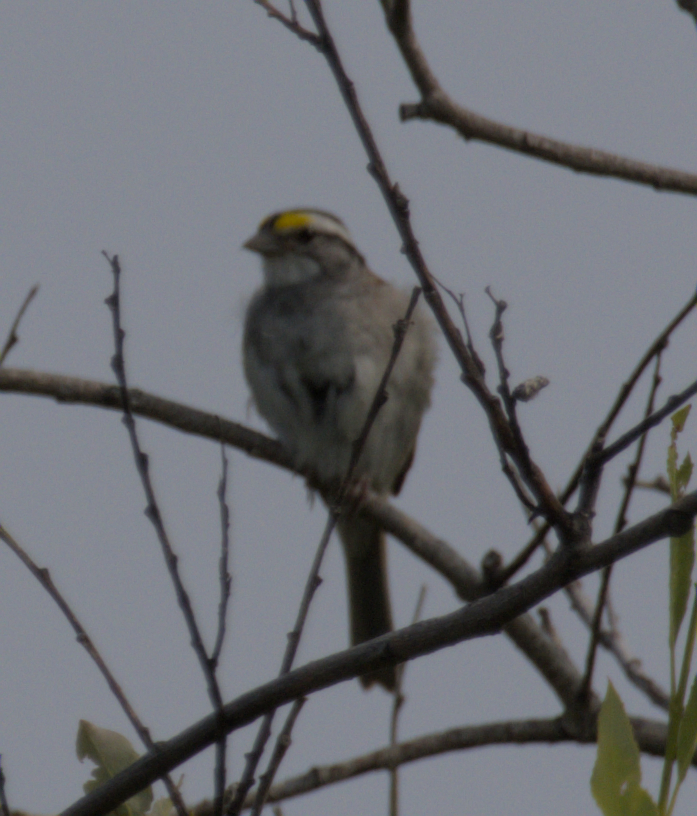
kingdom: Animalia
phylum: Chordata
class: Aves
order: Passeriformes
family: Passerellidae
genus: Zonotrichia
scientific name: Zonotrichia albicollis
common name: White-throated sparrow
